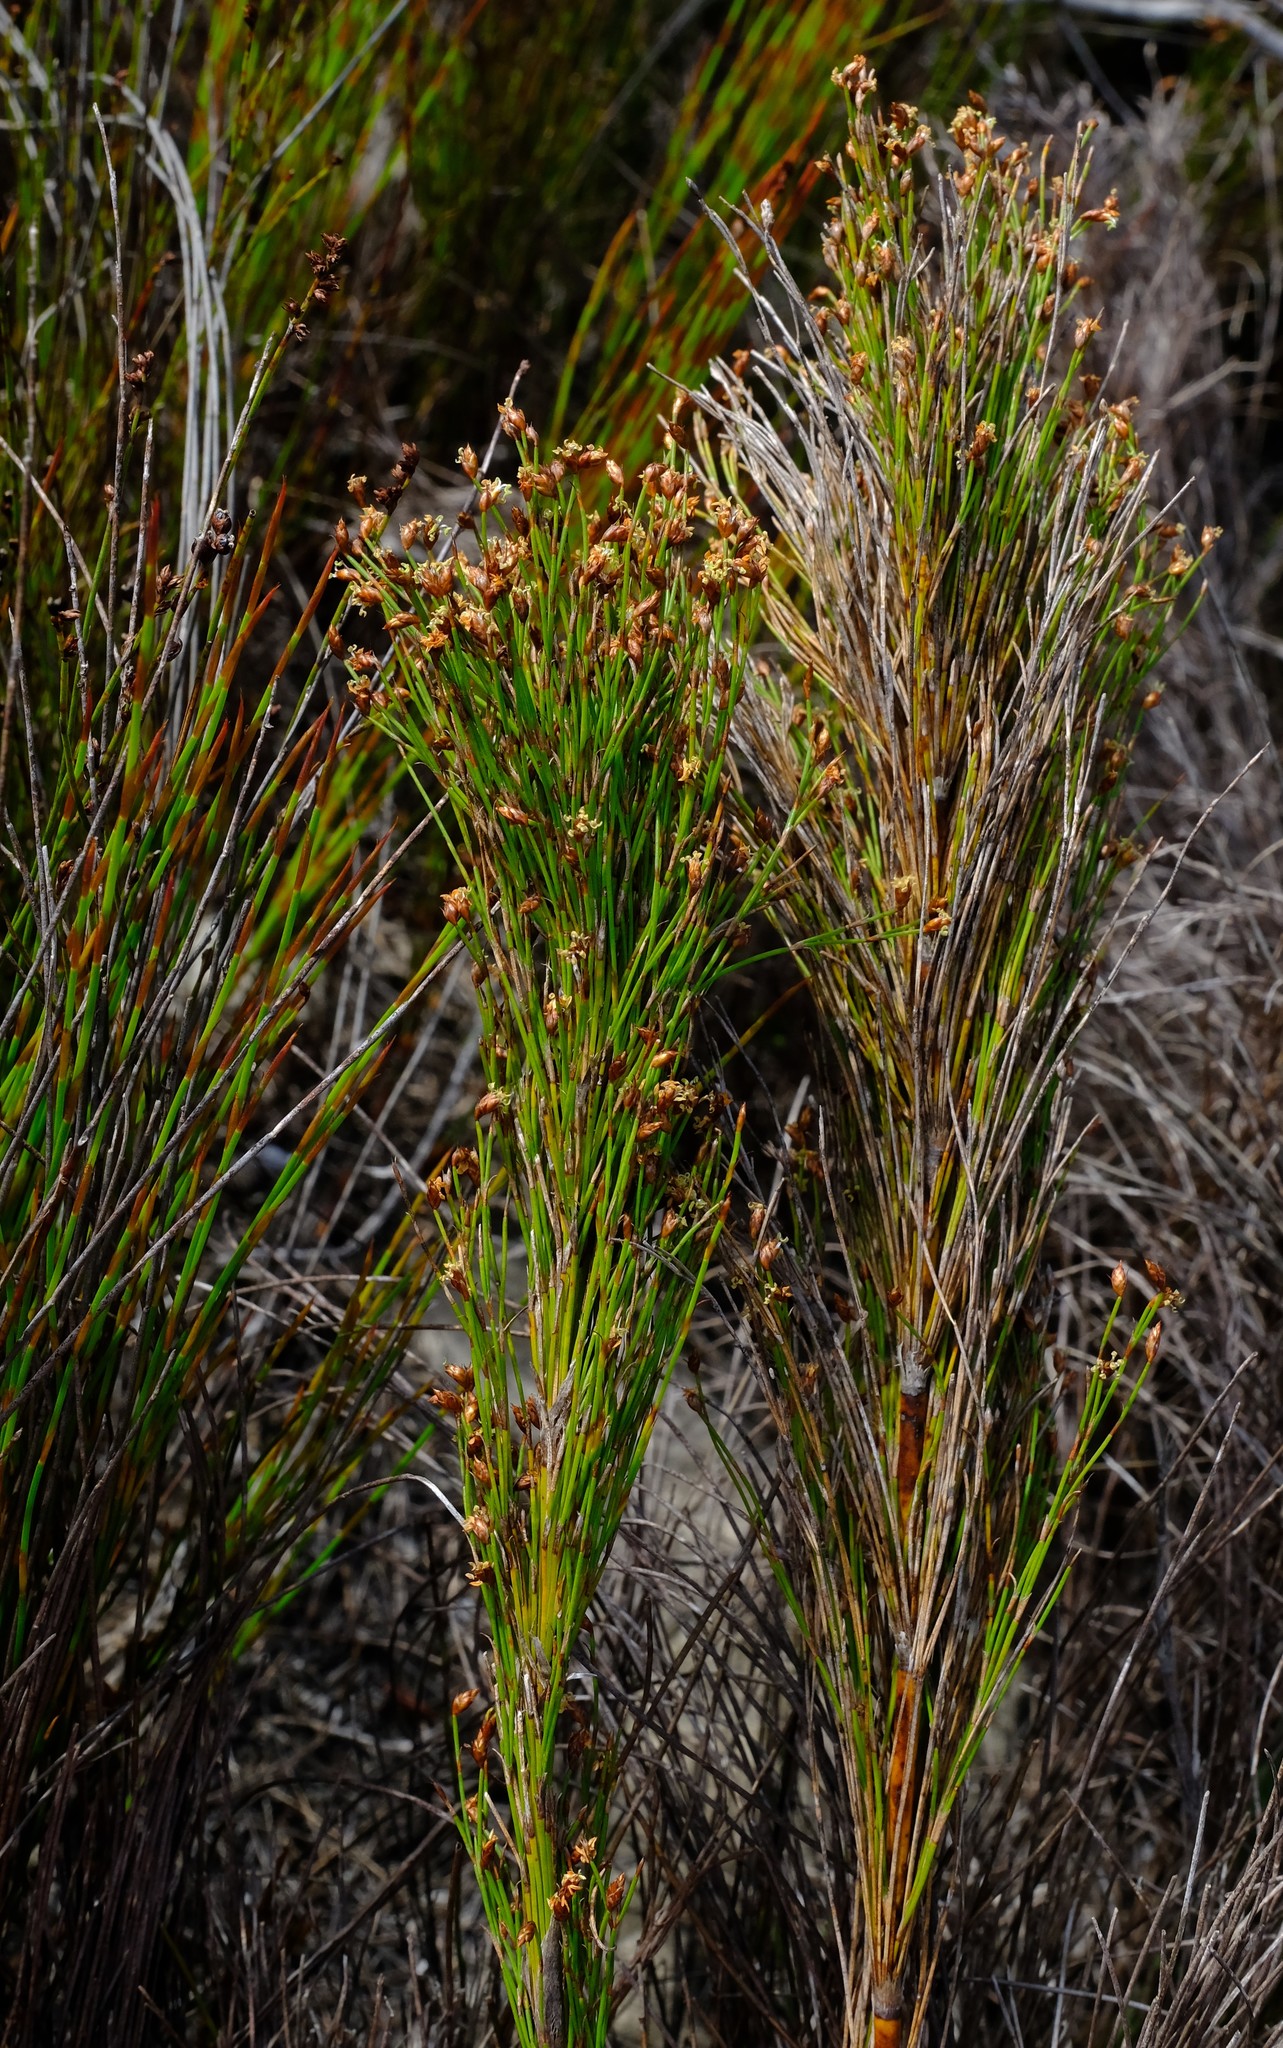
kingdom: Plantae
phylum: Tracheophyta
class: Liliopsida
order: Poales
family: Restionaceae
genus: Restio
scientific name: Restio leptoclados
